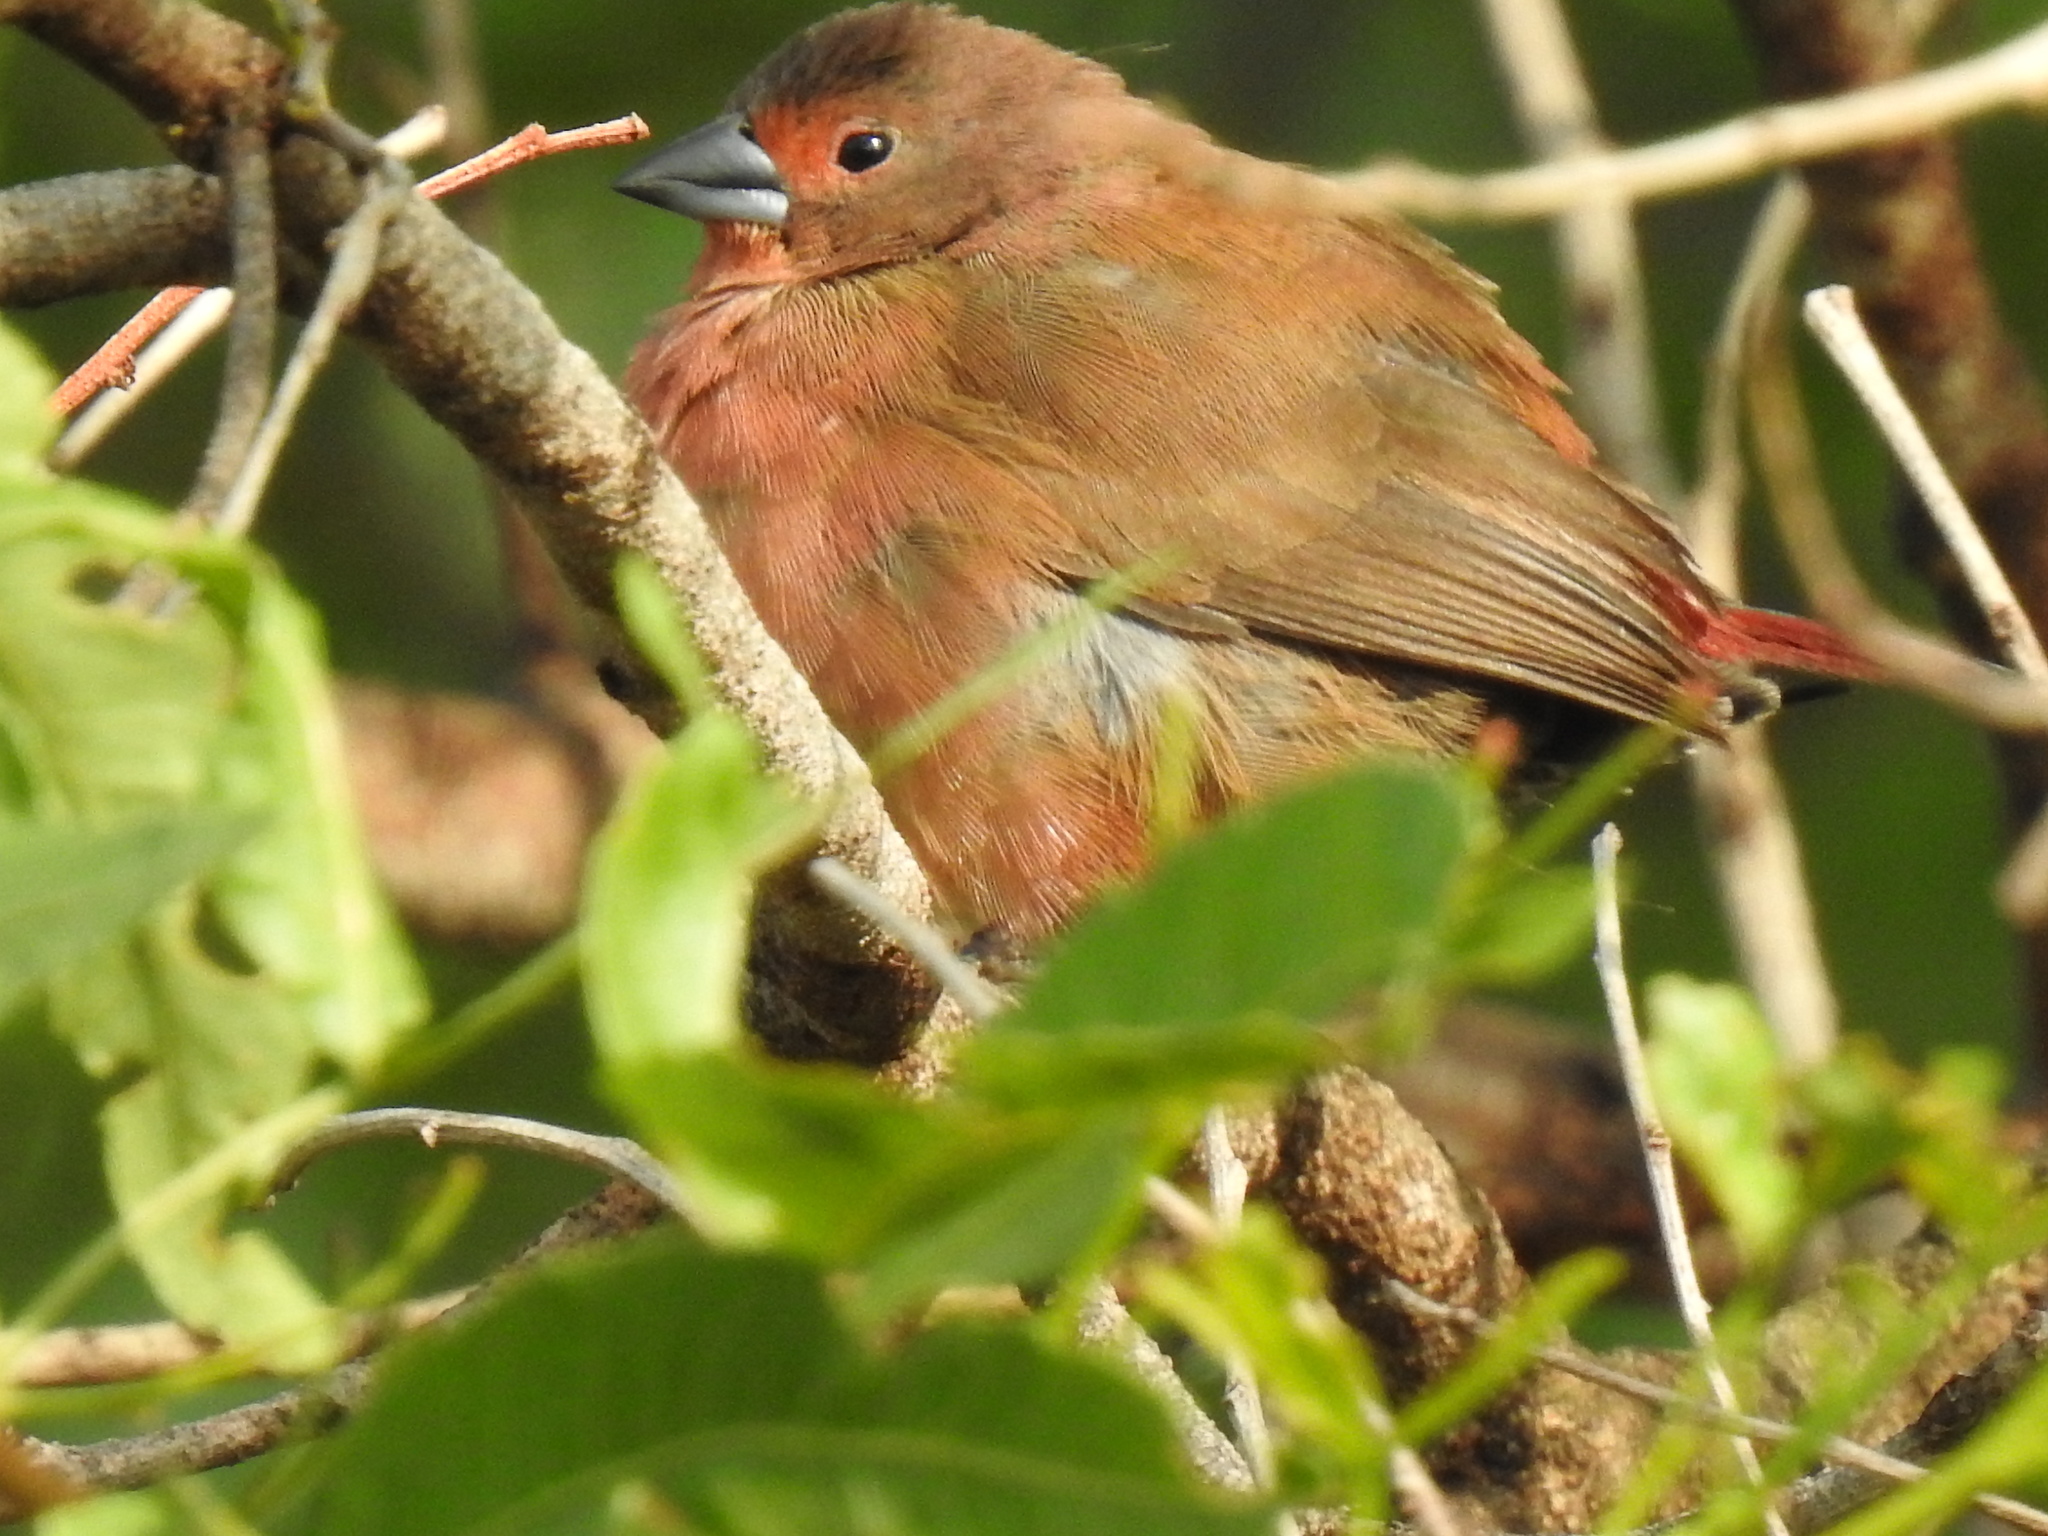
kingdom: Animalia
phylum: Chordata
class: Aves
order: Passeriformes
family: Estrildidae
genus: Lagonosticta
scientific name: Lagonosticta rhodopareia
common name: Jameson's firefinch
